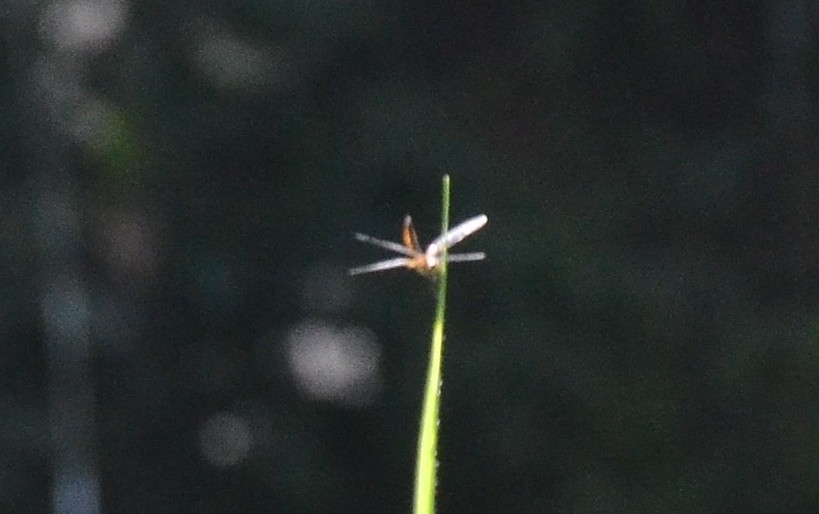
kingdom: Animalia
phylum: Arthropoda
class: Insecta
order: Odonata
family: Libellulidae
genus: Aethriamanta
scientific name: Aethriamanta brevipennis
